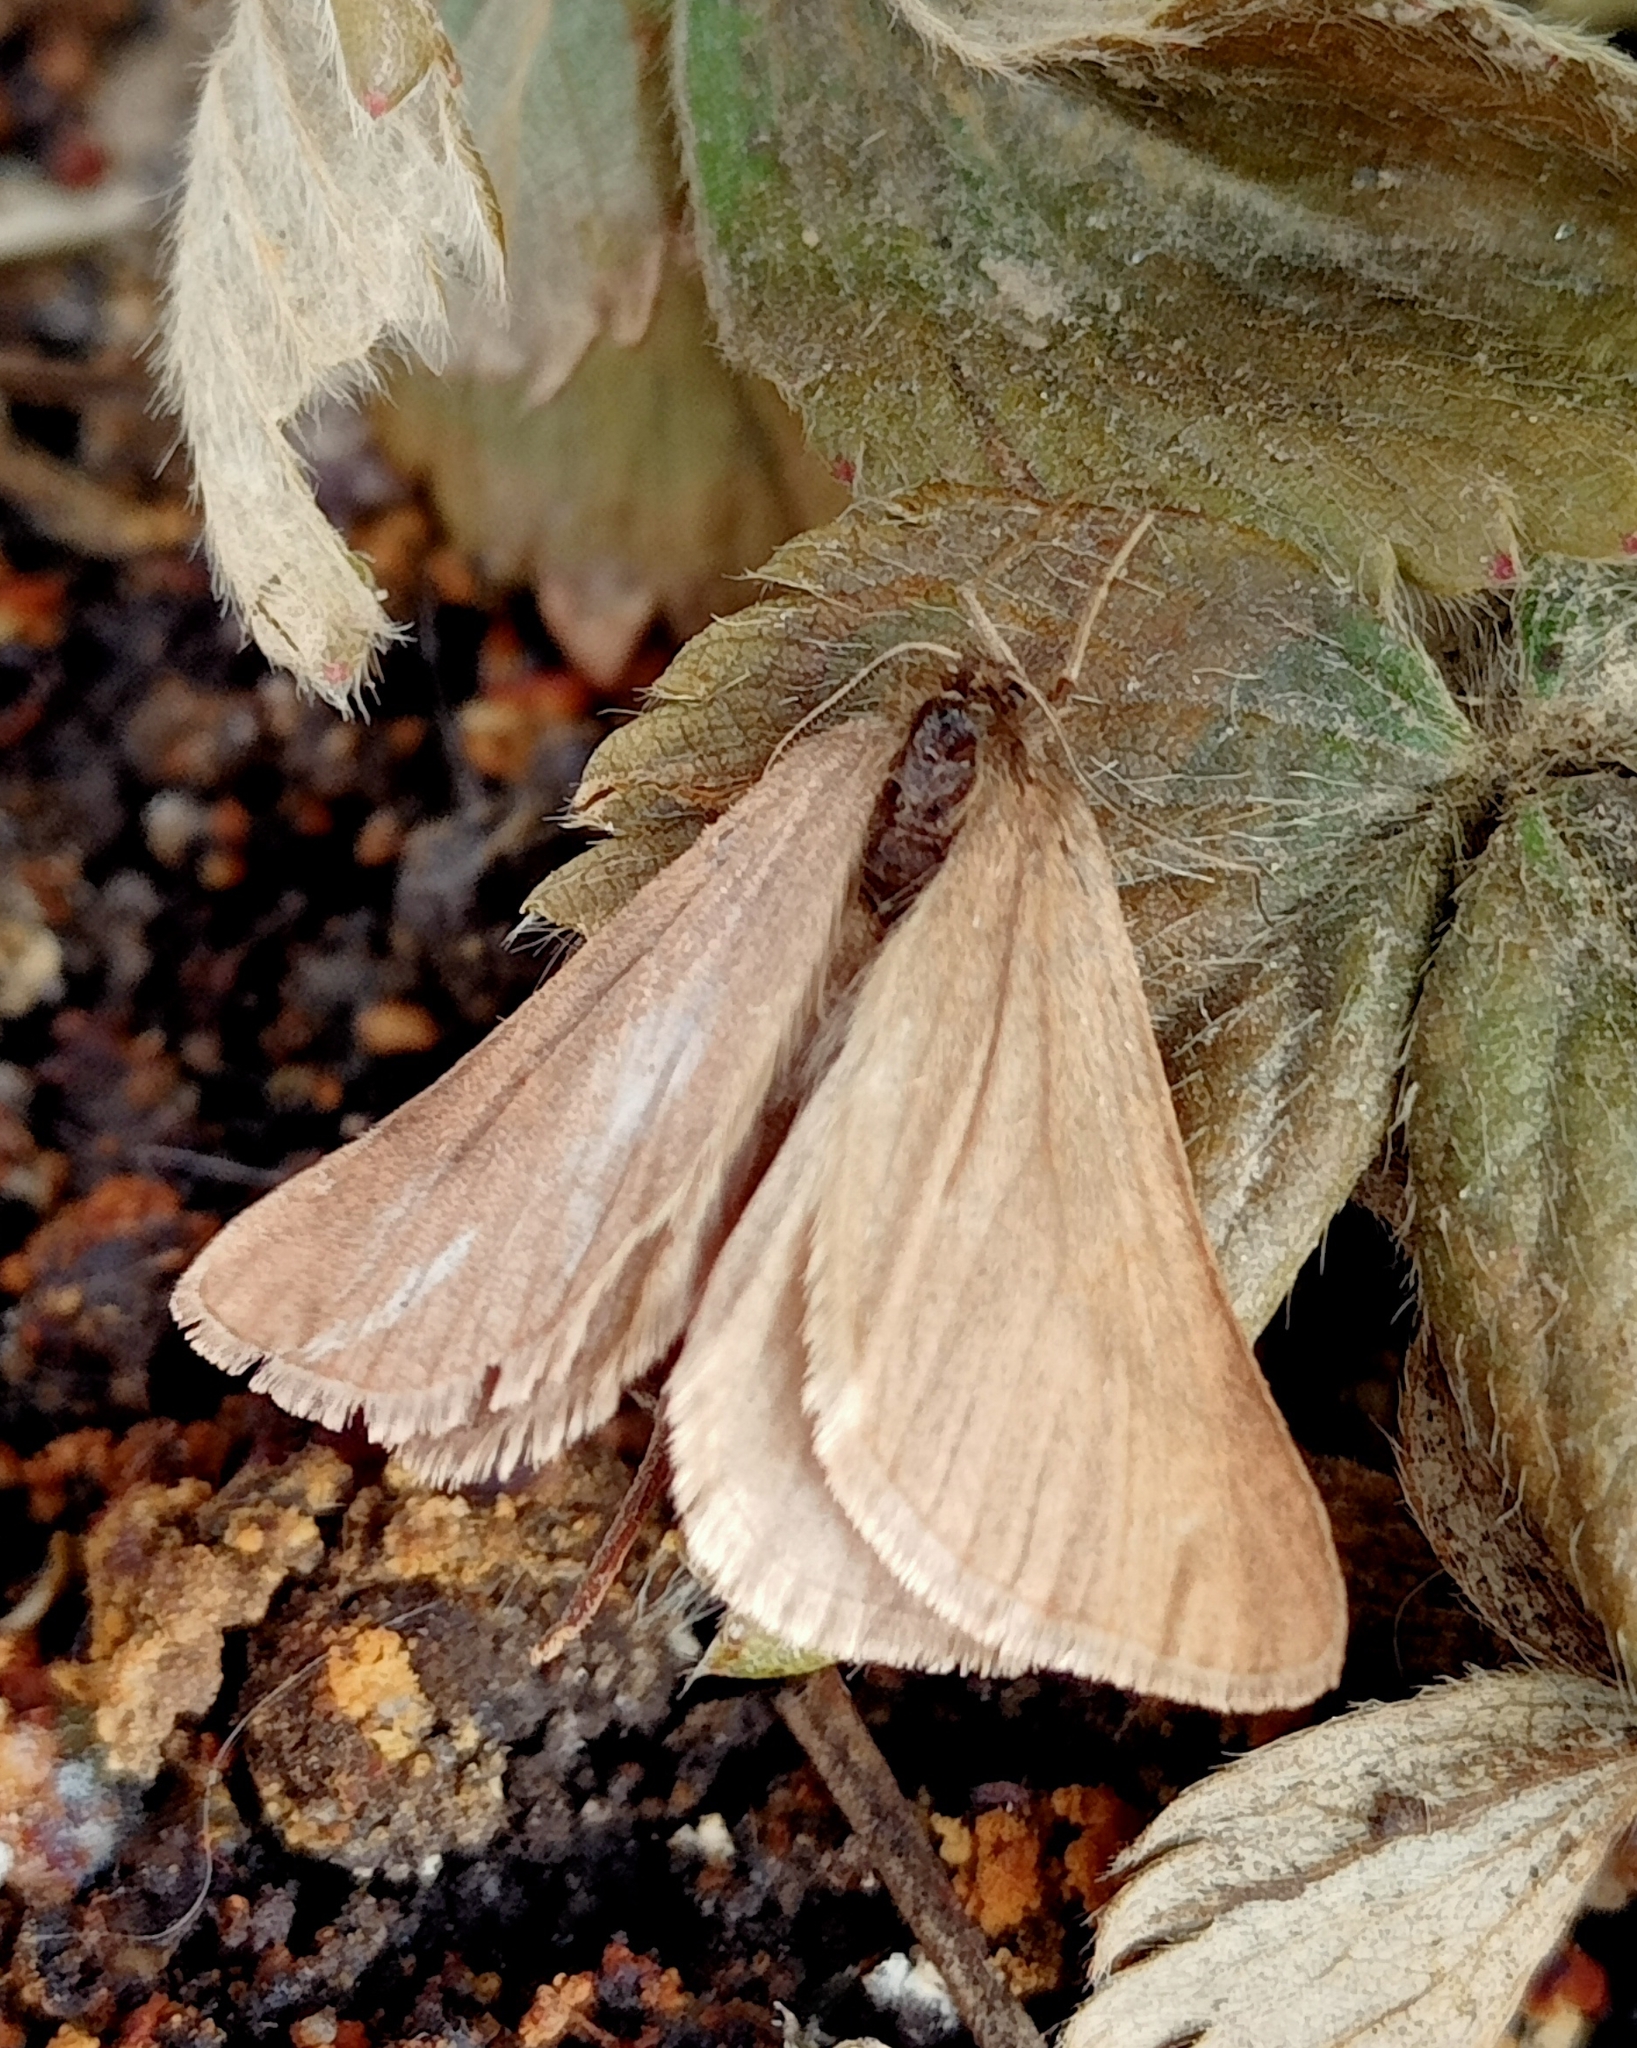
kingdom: Animalia
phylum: Arthropoda
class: Insecta
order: Lepidoptera
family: Geometridae
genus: Lignyoptera
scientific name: Lignyoptera fumidaria
